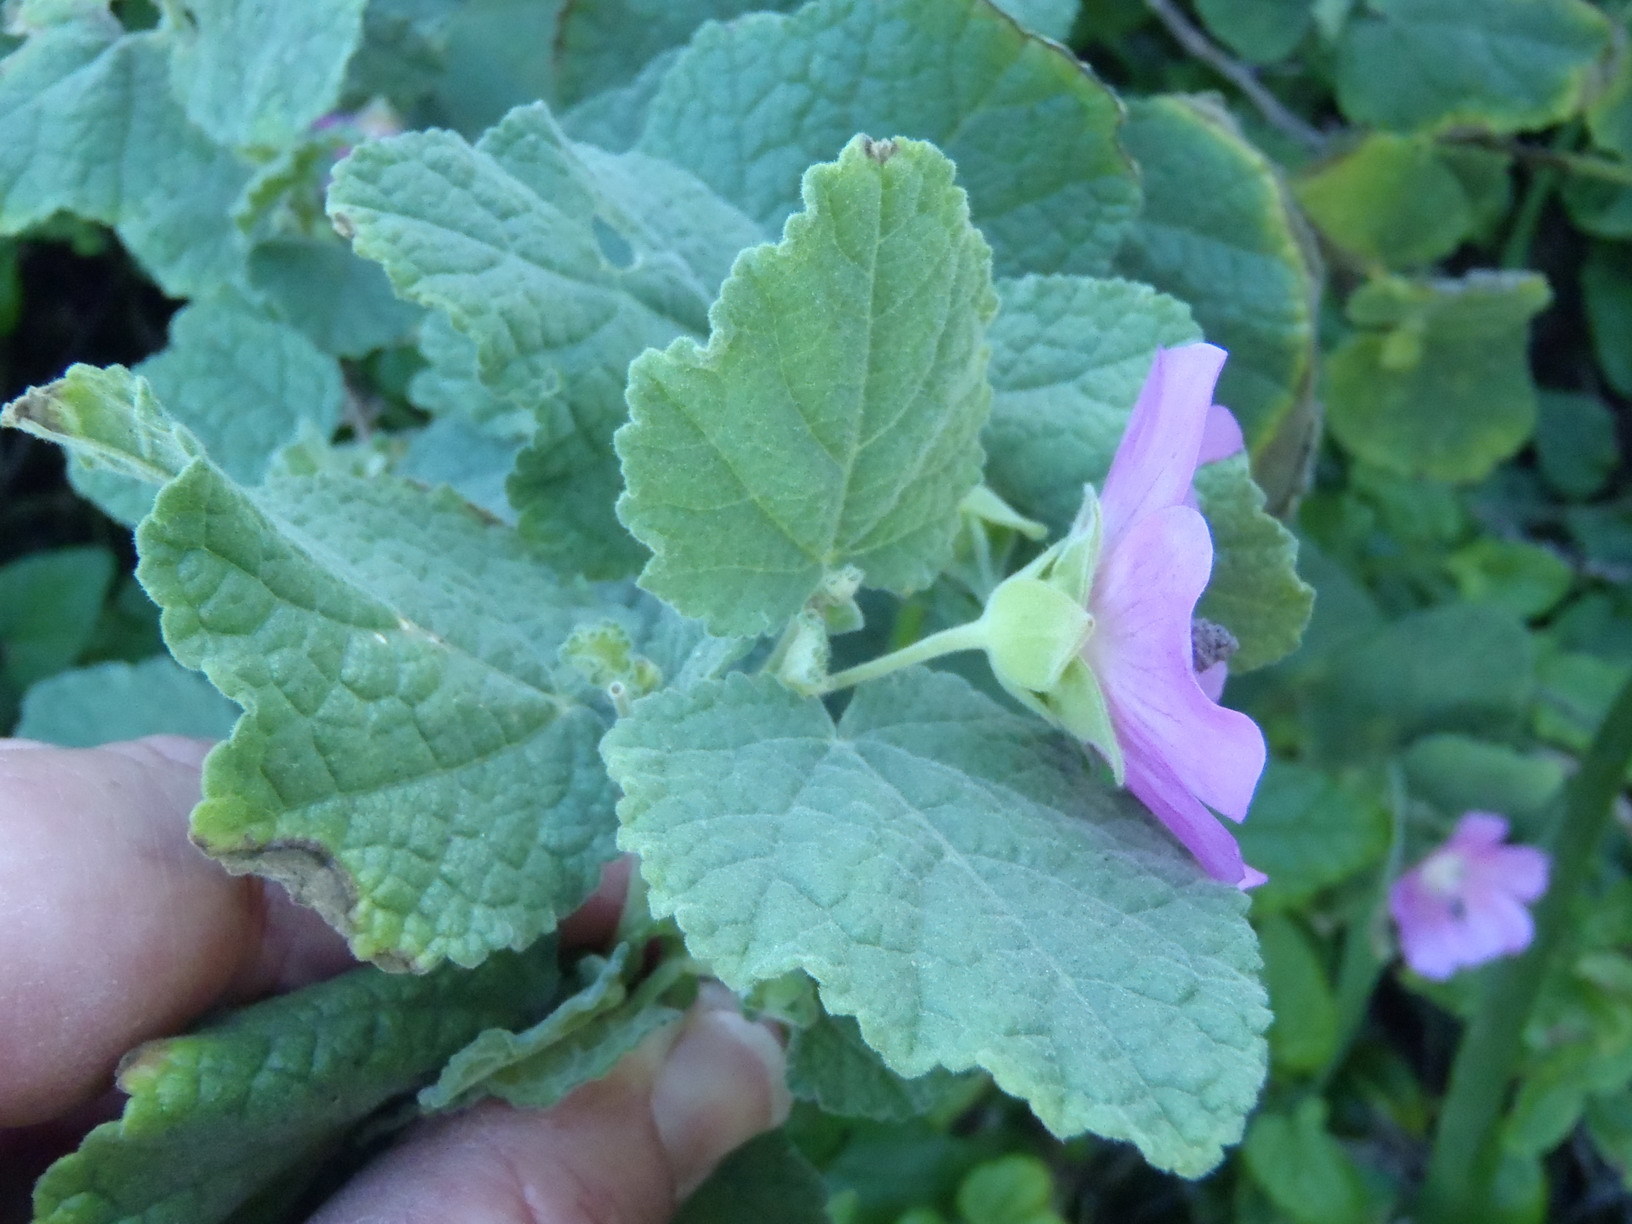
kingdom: Plantae
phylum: Tracheophyta
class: Magnoliopsida
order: Malvales
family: Malvaceae
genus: Anisodontea
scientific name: Anisodontea scabrosa
